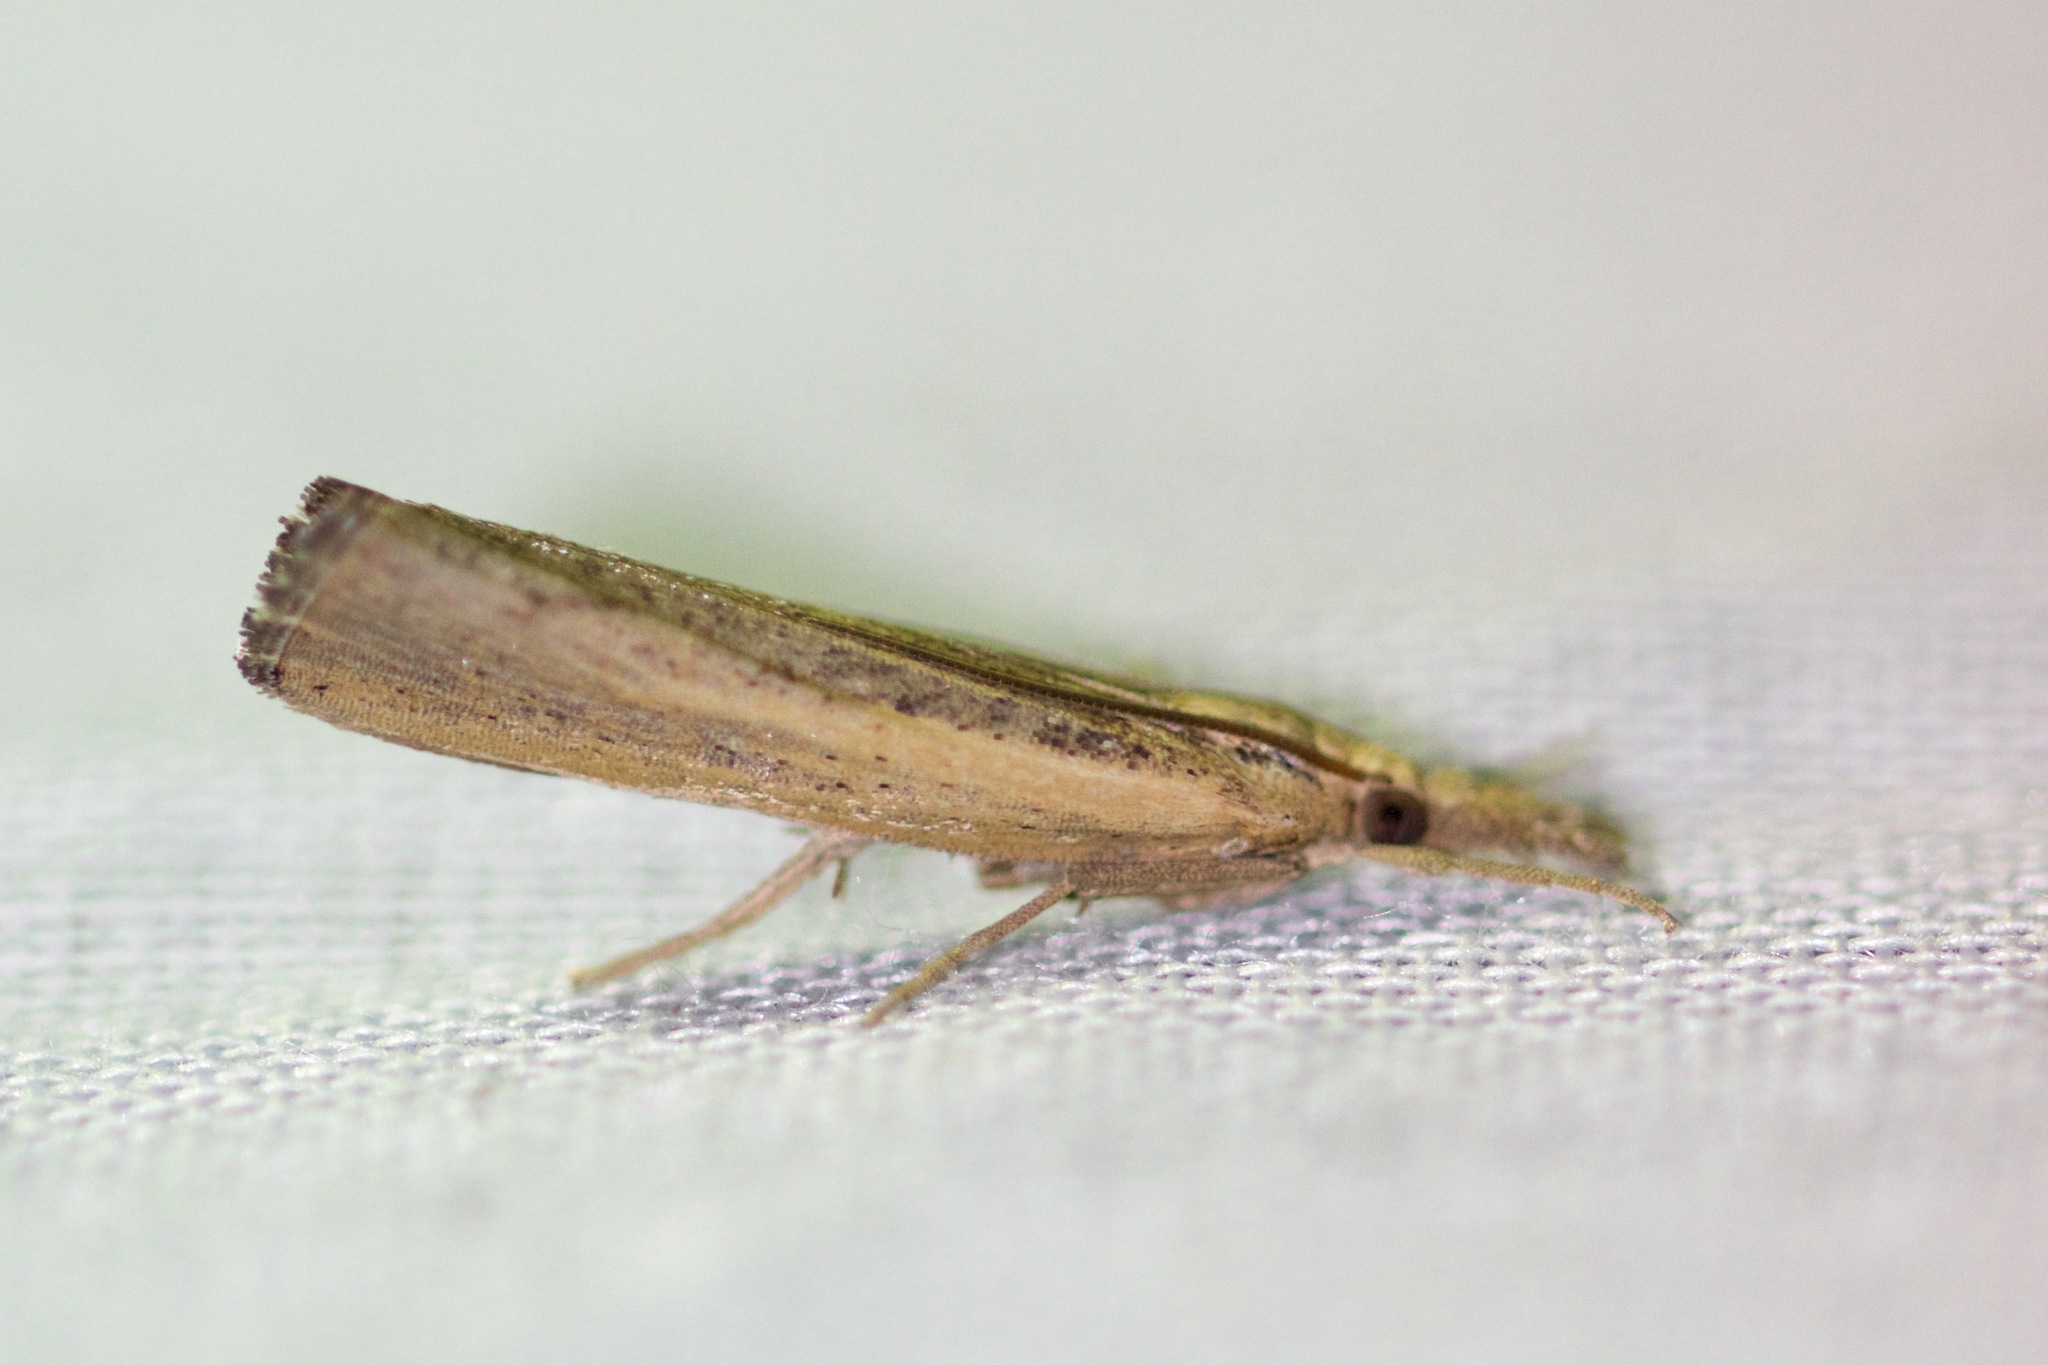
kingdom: Animalia
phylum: Arthropoda
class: Insecta
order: Lepidoptera
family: Crambidae
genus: Pediasia
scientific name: Pediasia trisecta
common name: Sod webworm moth
